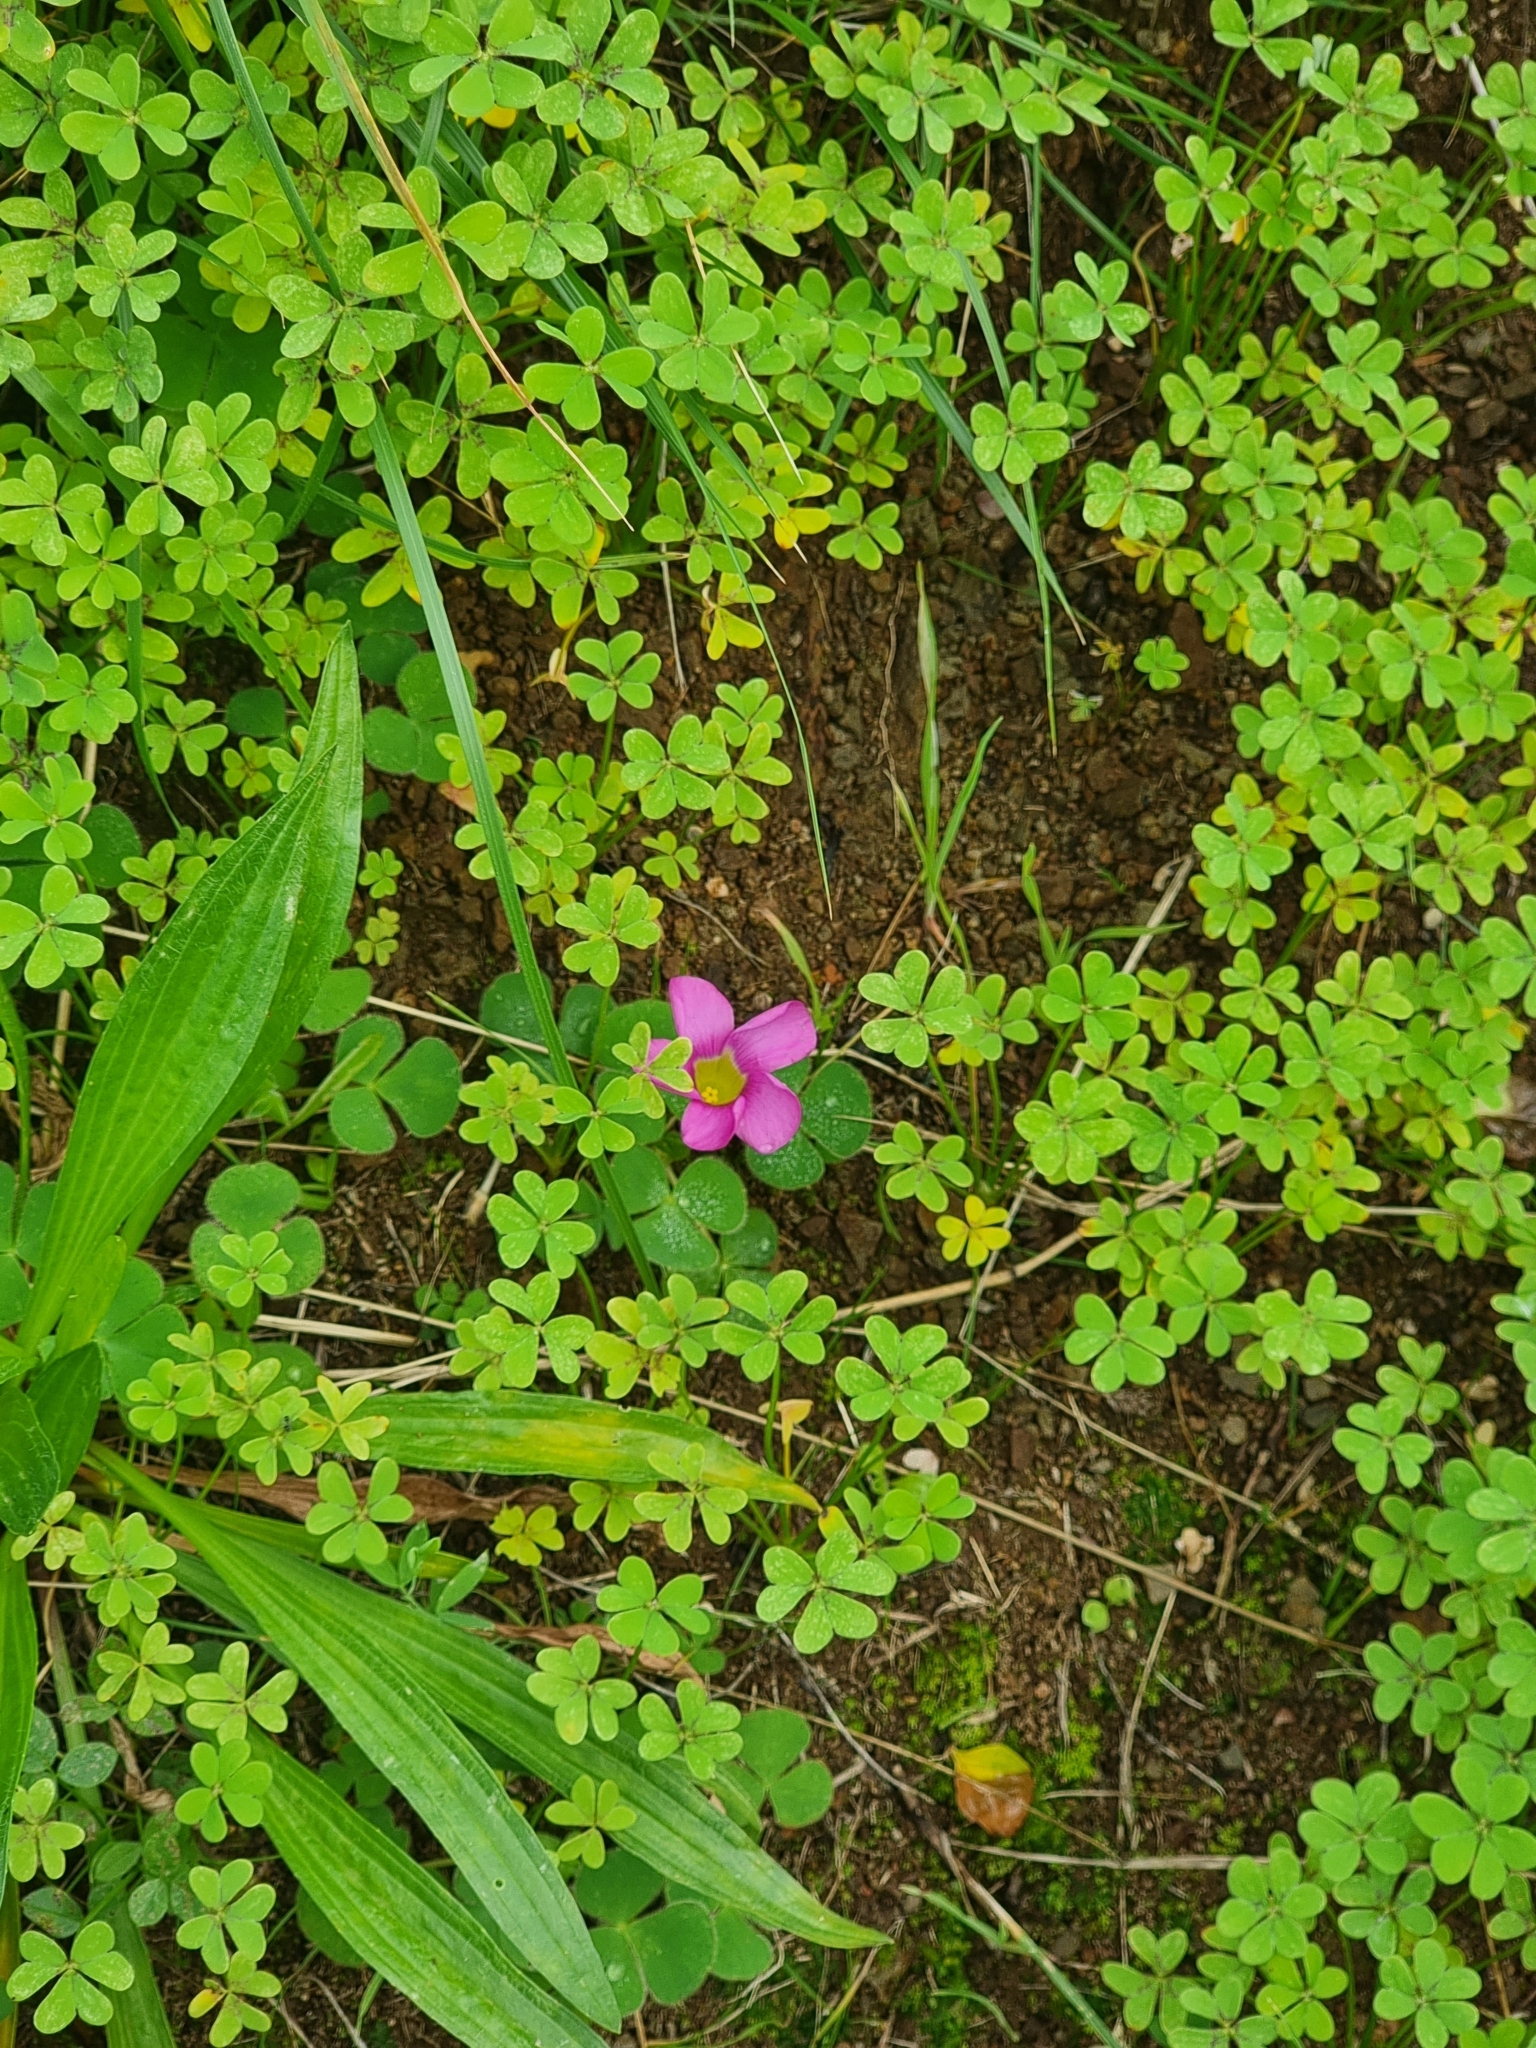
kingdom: Plantae
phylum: Tracheophyta
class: Magnoliopsida
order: Oxalidales
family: Oxalidaceae
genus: Oxalis
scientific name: Oxalis purpurea
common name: Purple woodsorrel
